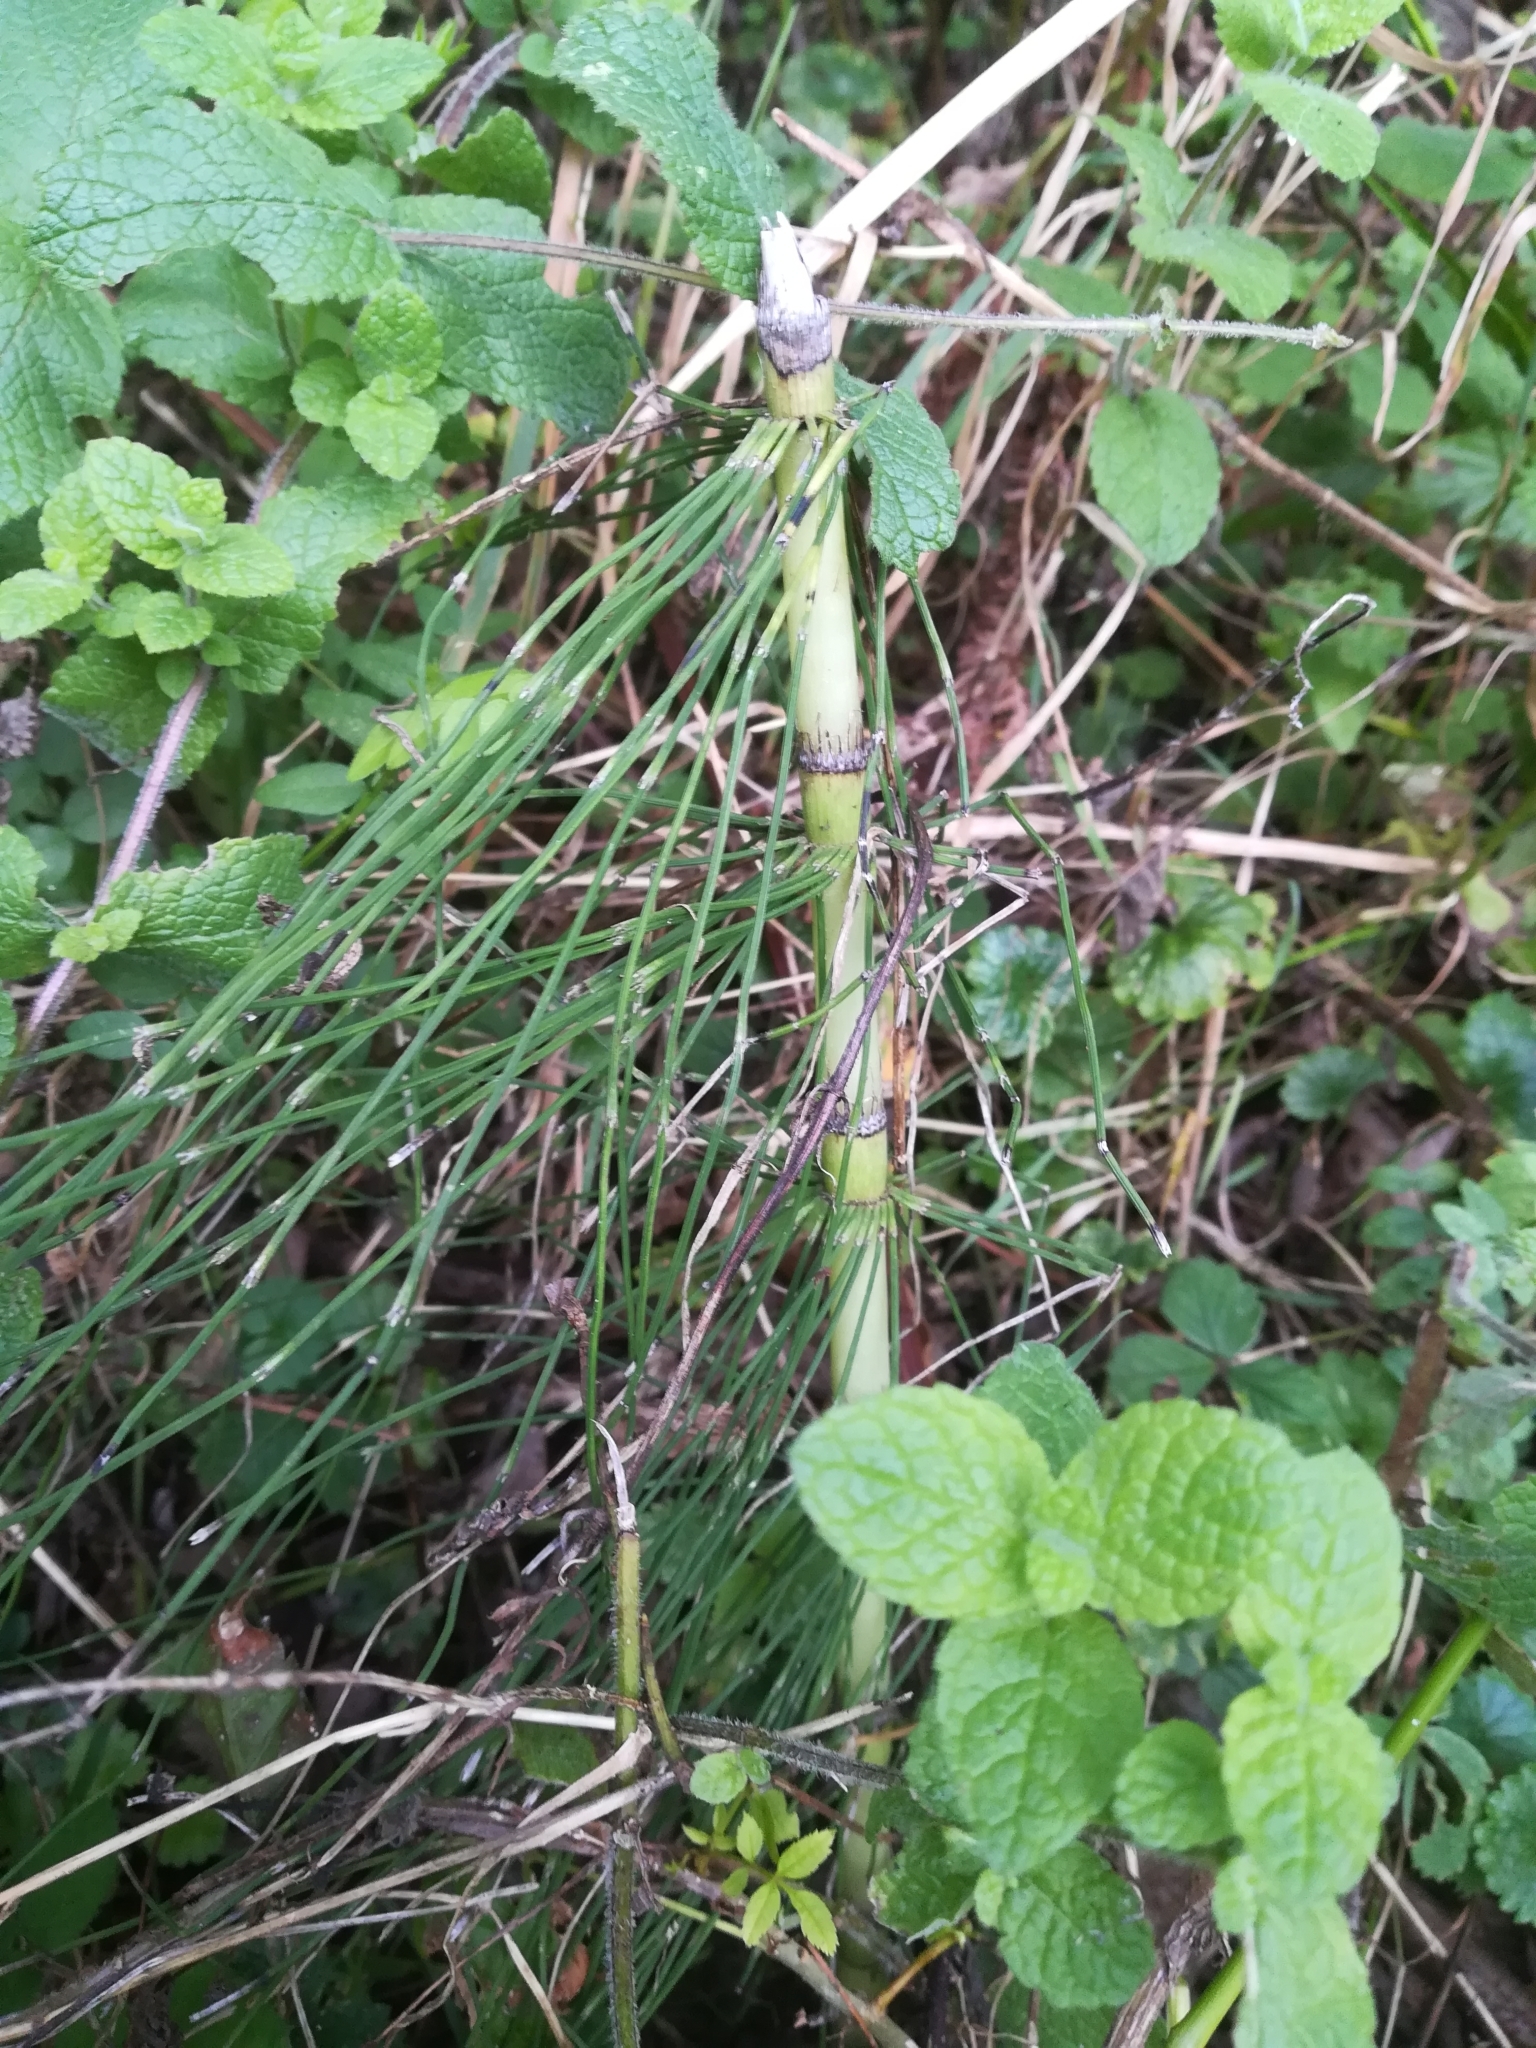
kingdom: Plantae
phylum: Tracheophyta
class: Polypodiopsida
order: Equisetales
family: Equisetaceae
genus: Equisetum
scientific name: Equisetum telmateia
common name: Great horsetail
